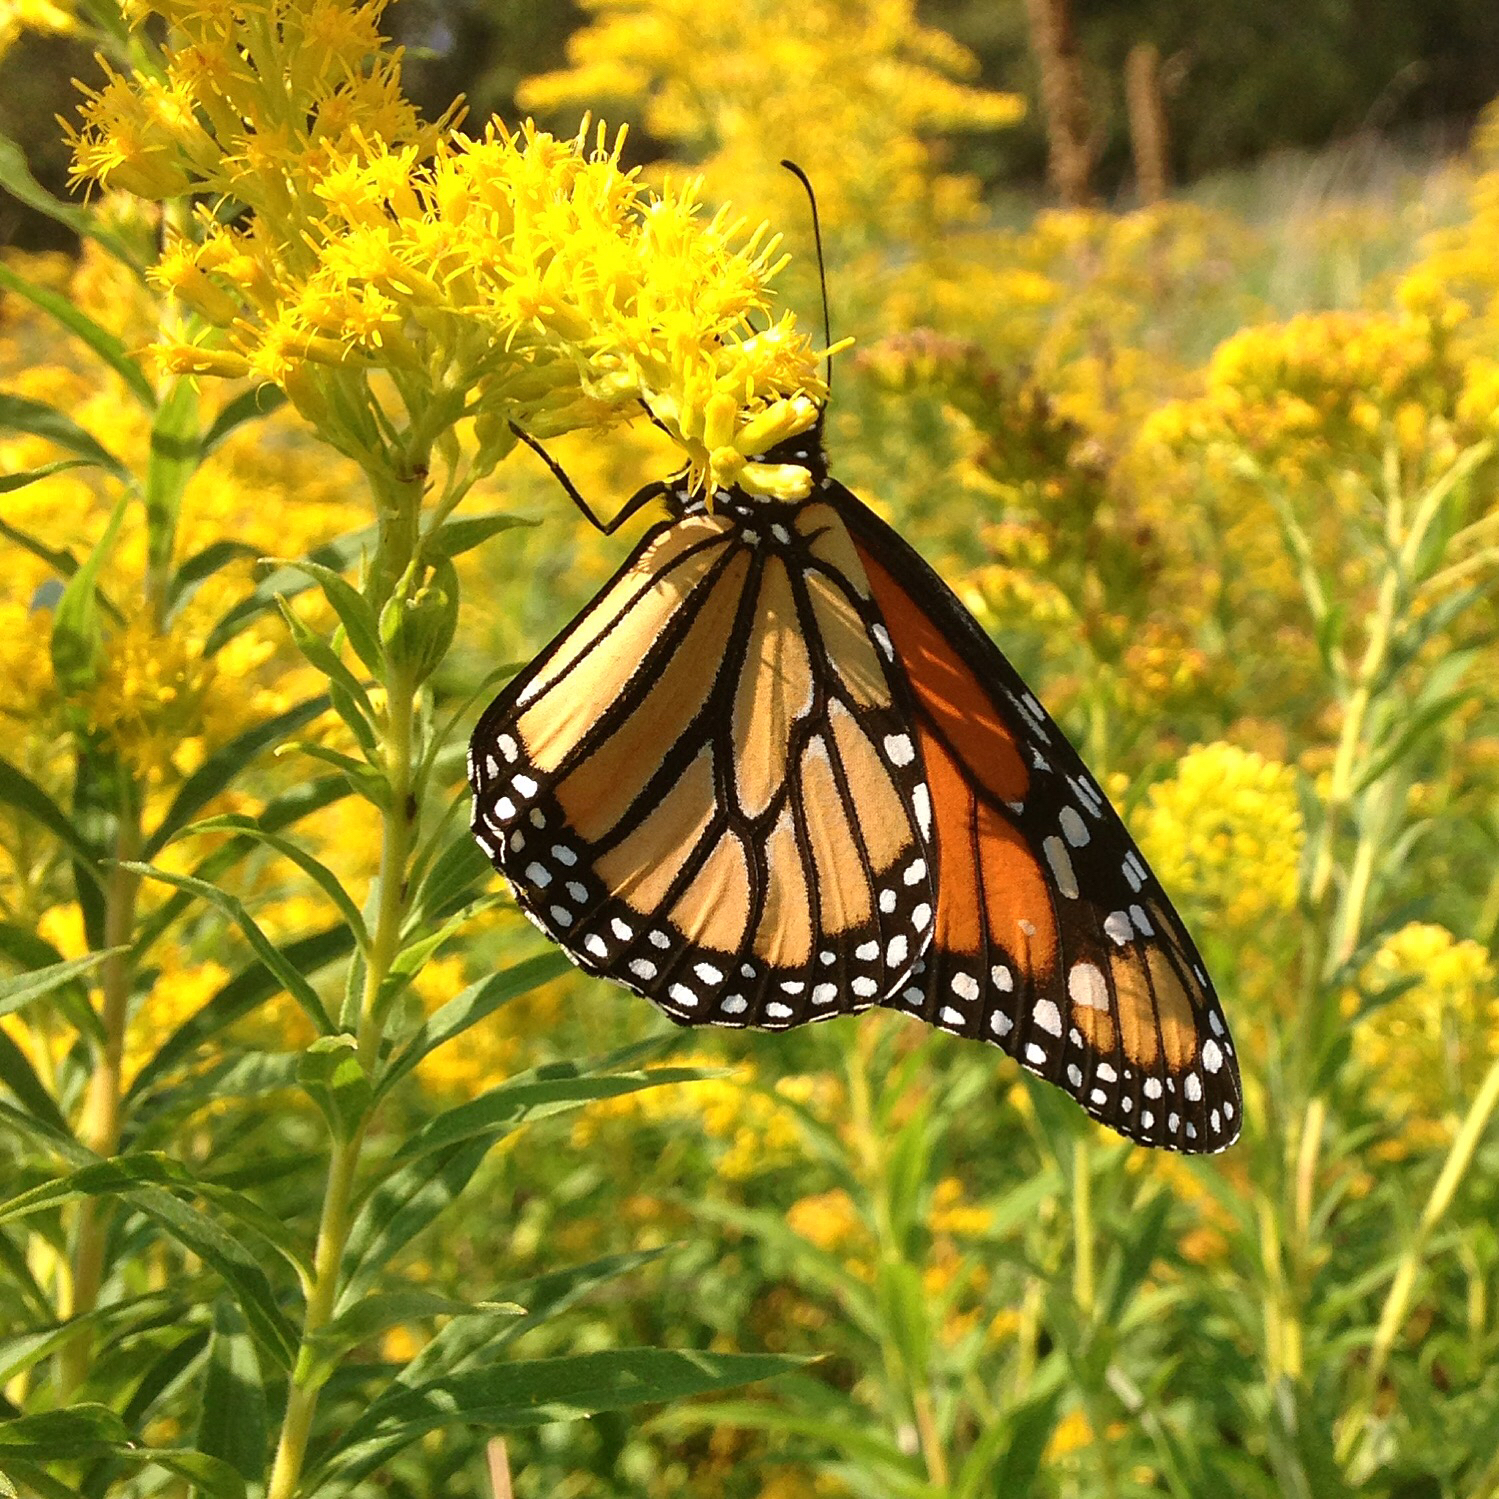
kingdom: Animalia
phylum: Arthropoda
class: Insecta
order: Lepidoptera
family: Nymphalidae
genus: Danaus
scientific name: Danaus plexippus
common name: Monarch
